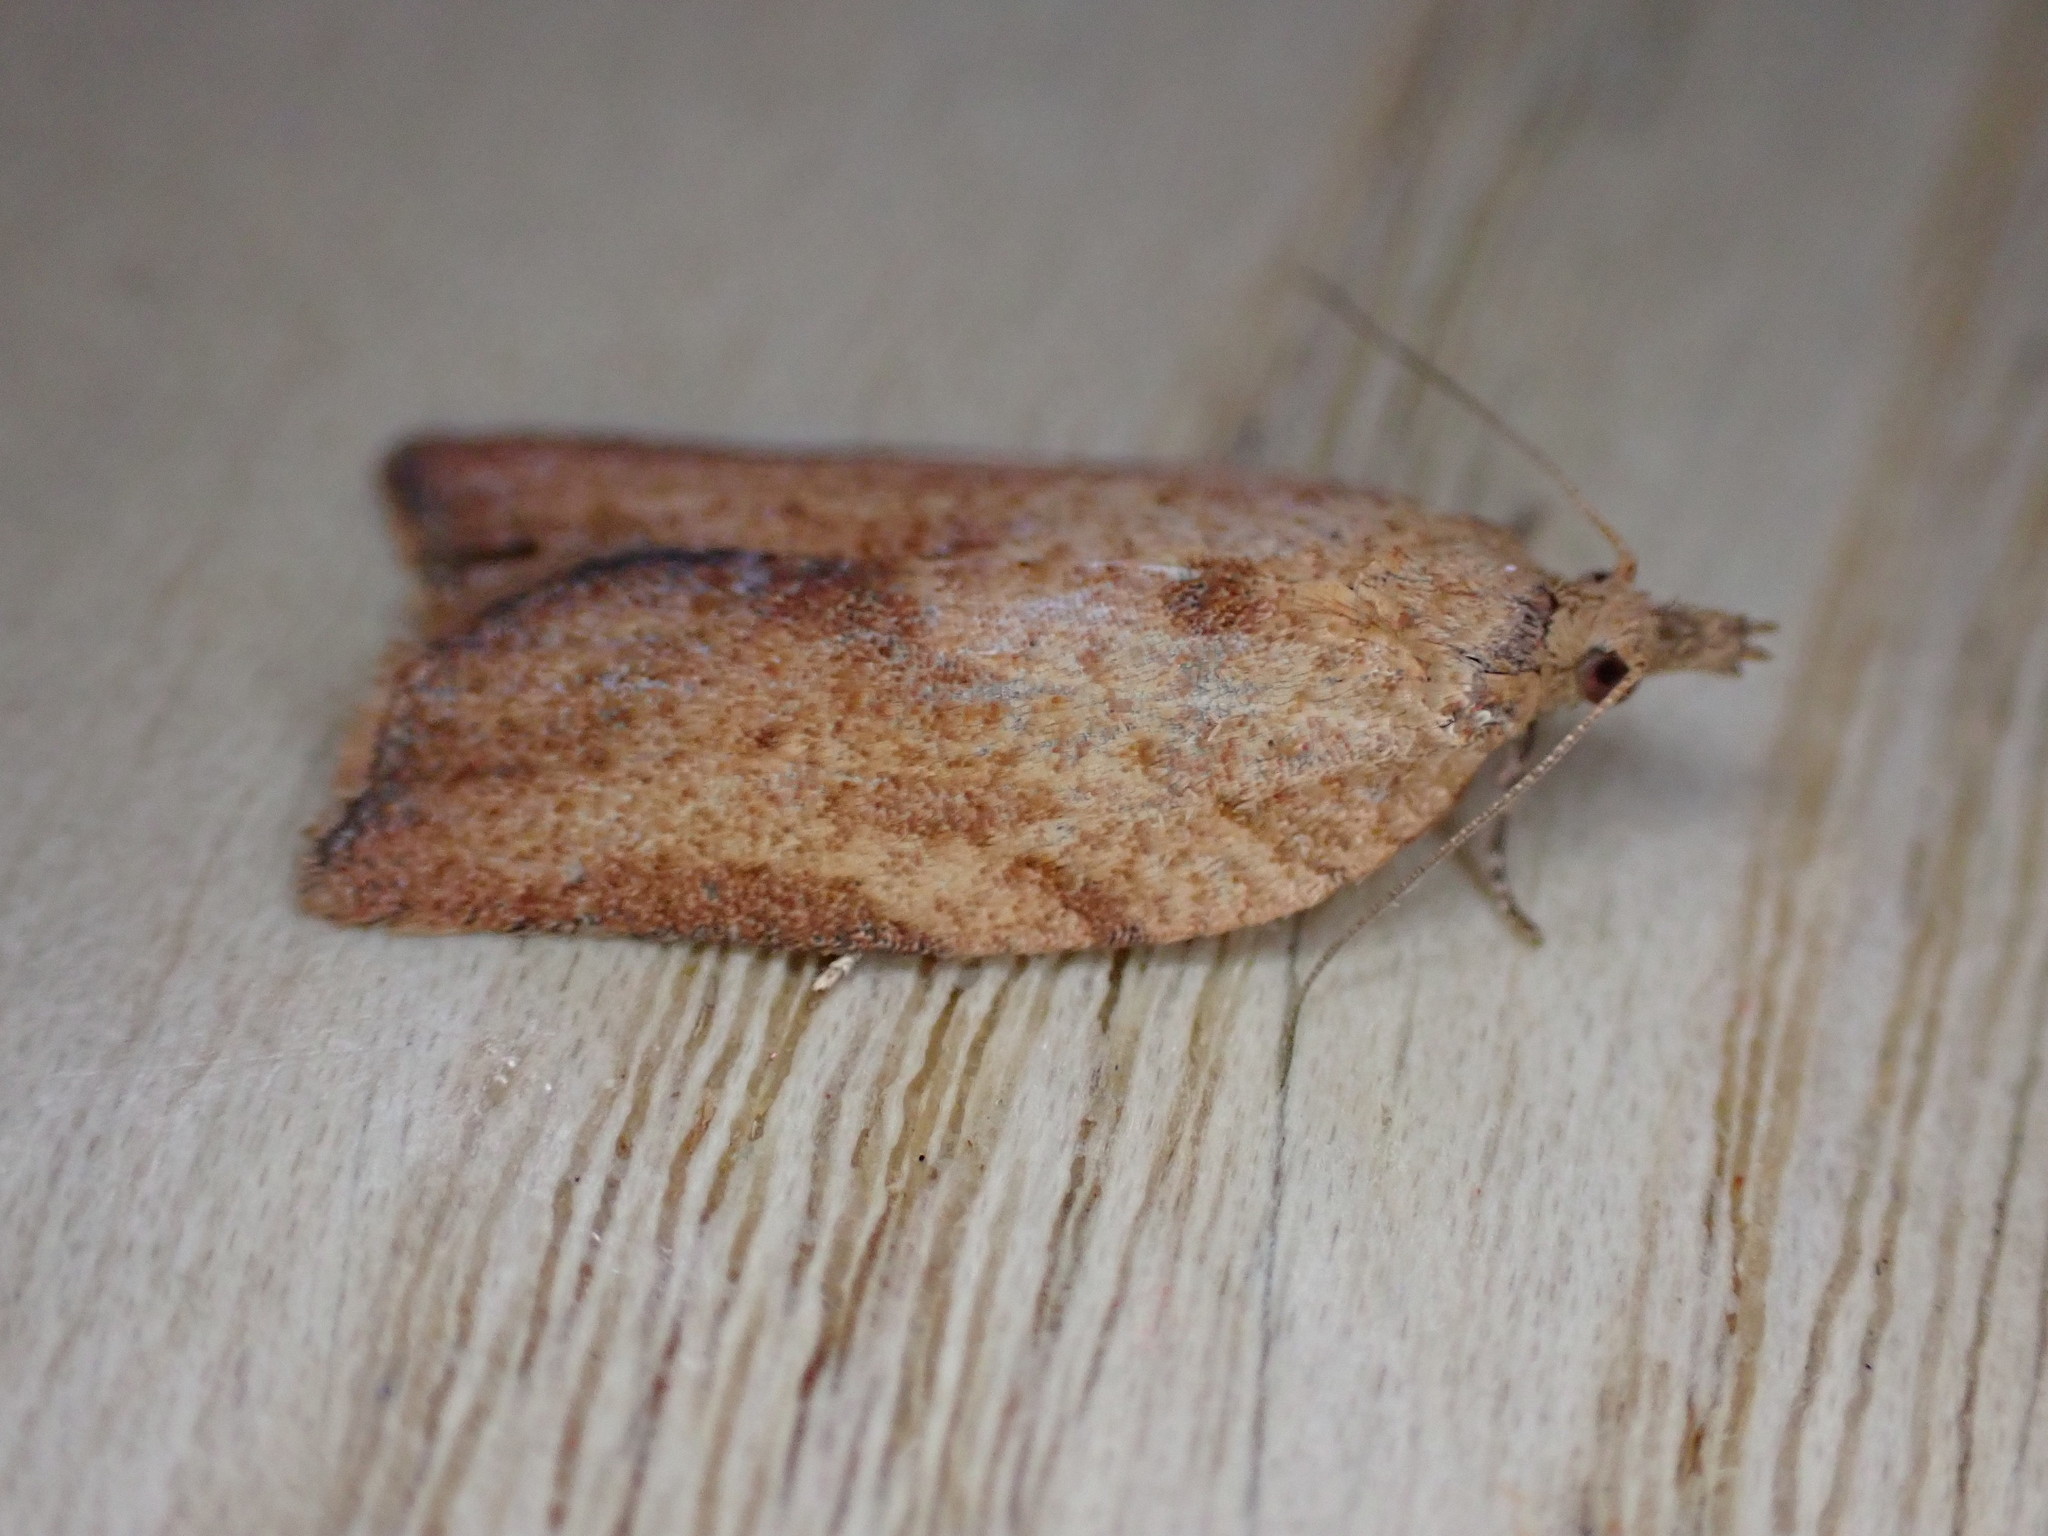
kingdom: Animalia
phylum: Arthropoda
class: Insecta
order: Lepidoptera
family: Tortricidae
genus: Epiphyas
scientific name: Epiphyas postvittana
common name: Light brown apple moth
